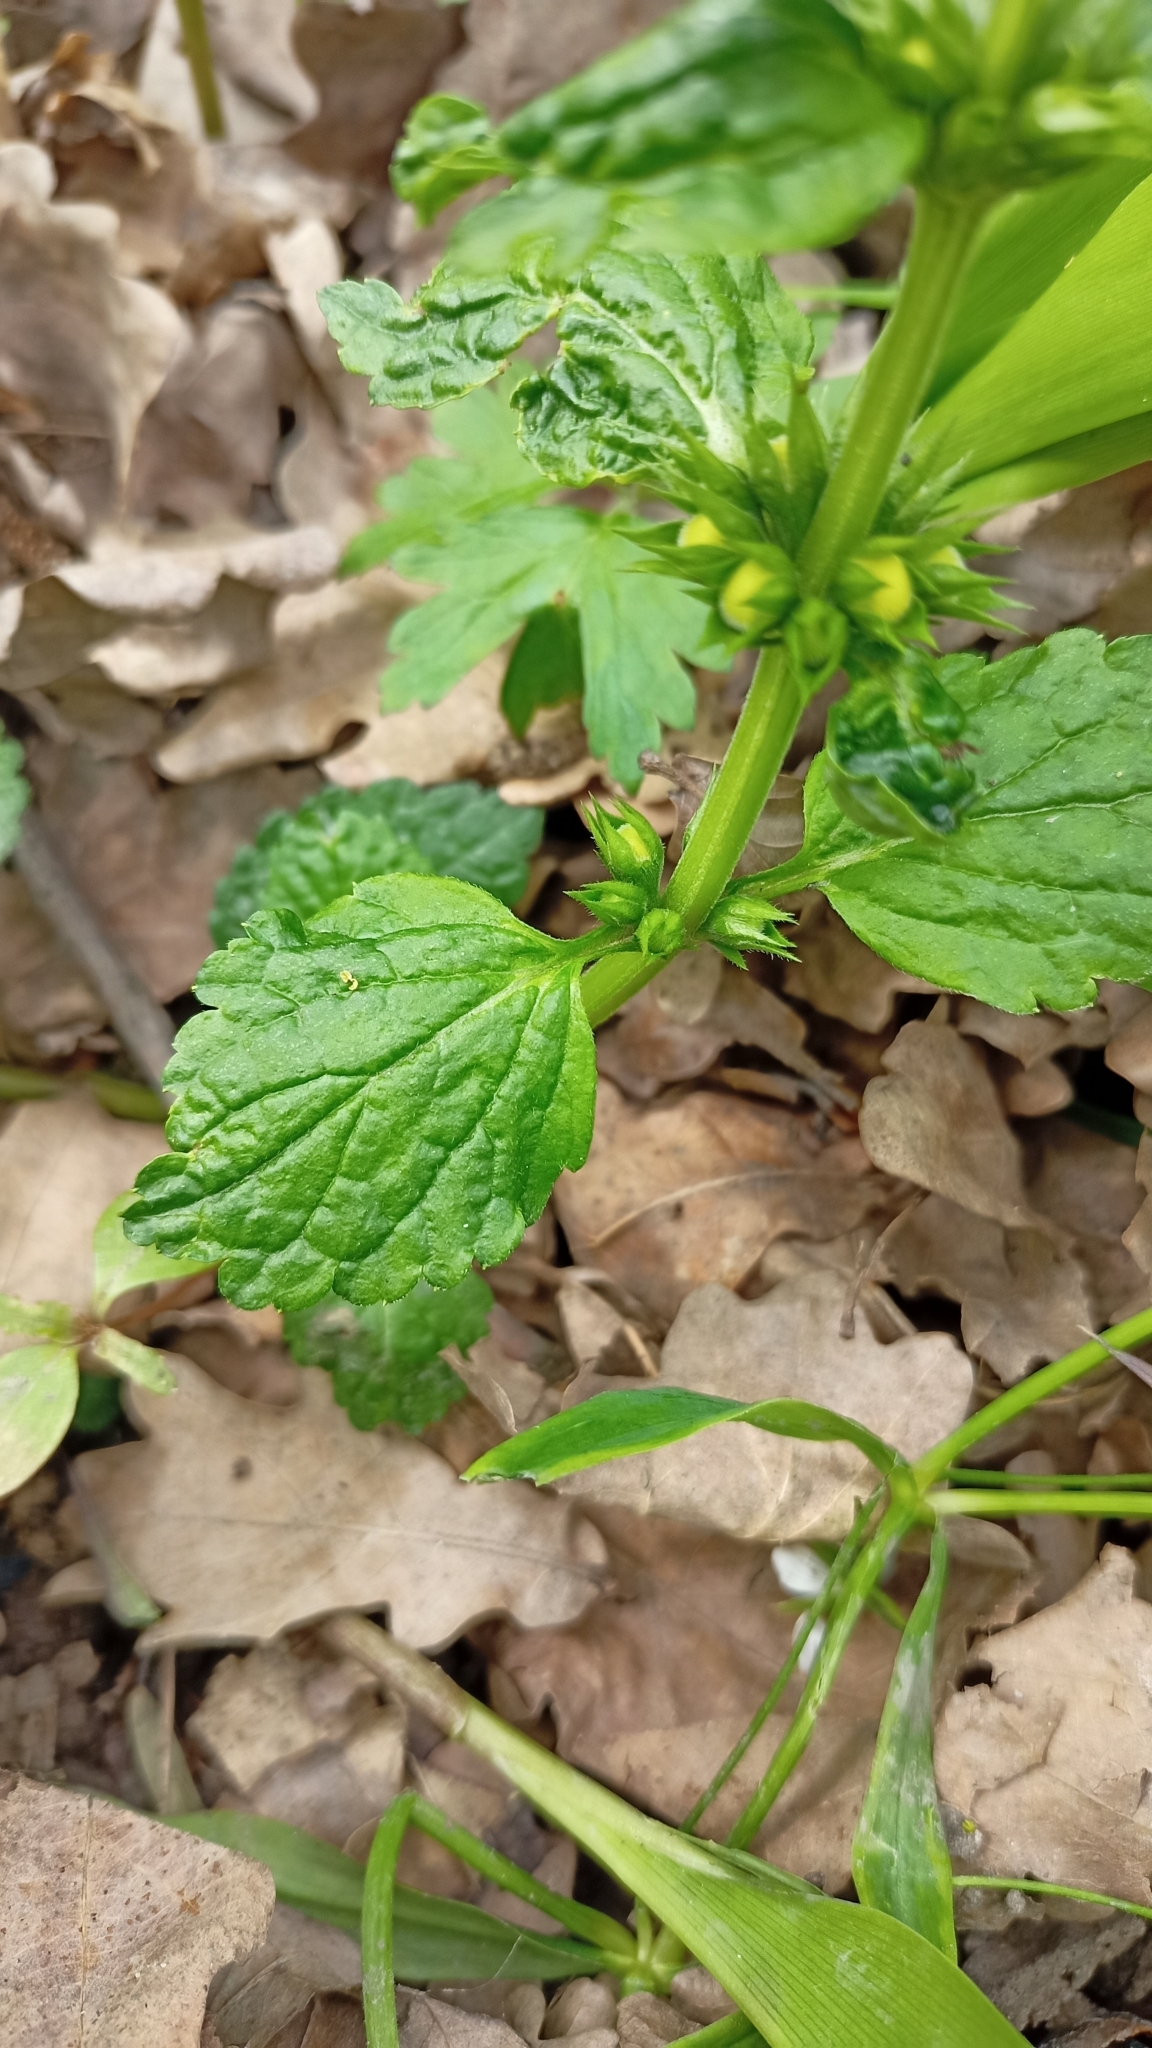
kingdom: Plantae
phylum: Tracheophyta
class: Magnoliopsida
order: Lamiales
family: Lamiaceae
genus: Lamium
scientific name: Lamium galeobdolon
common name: Yellow archangel
